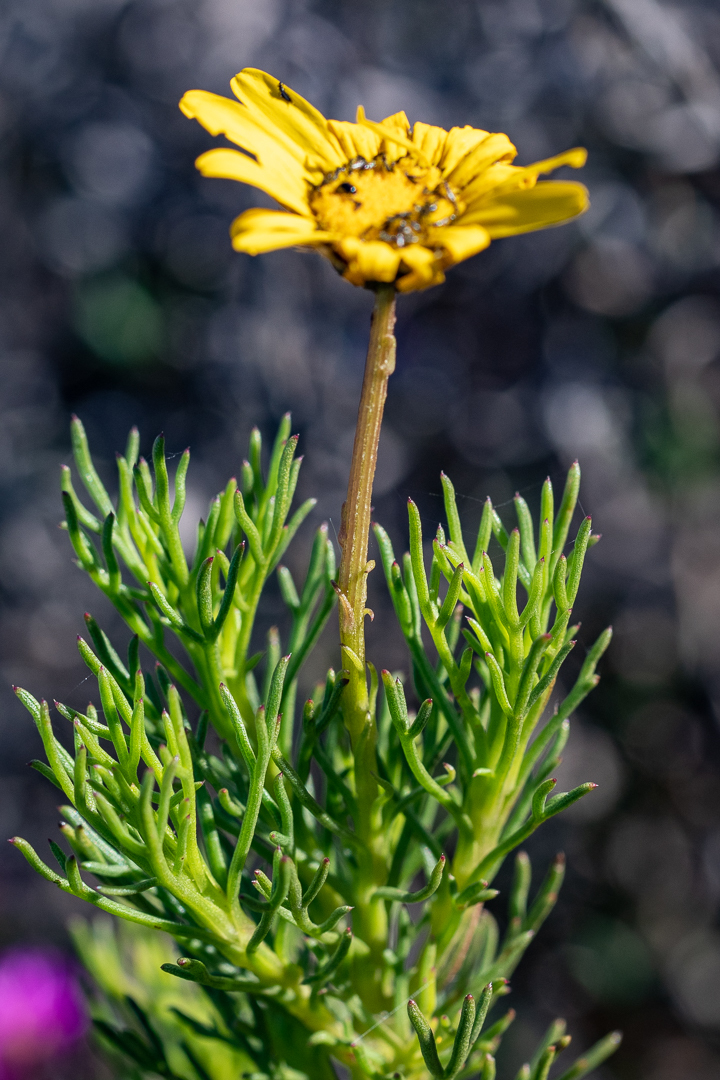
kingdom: Plantae
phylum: Tracheophyta
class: Magnoliopsida
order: Asterales
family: Asteraceae
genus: Euryops
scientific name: Euryops abrotanifolius
